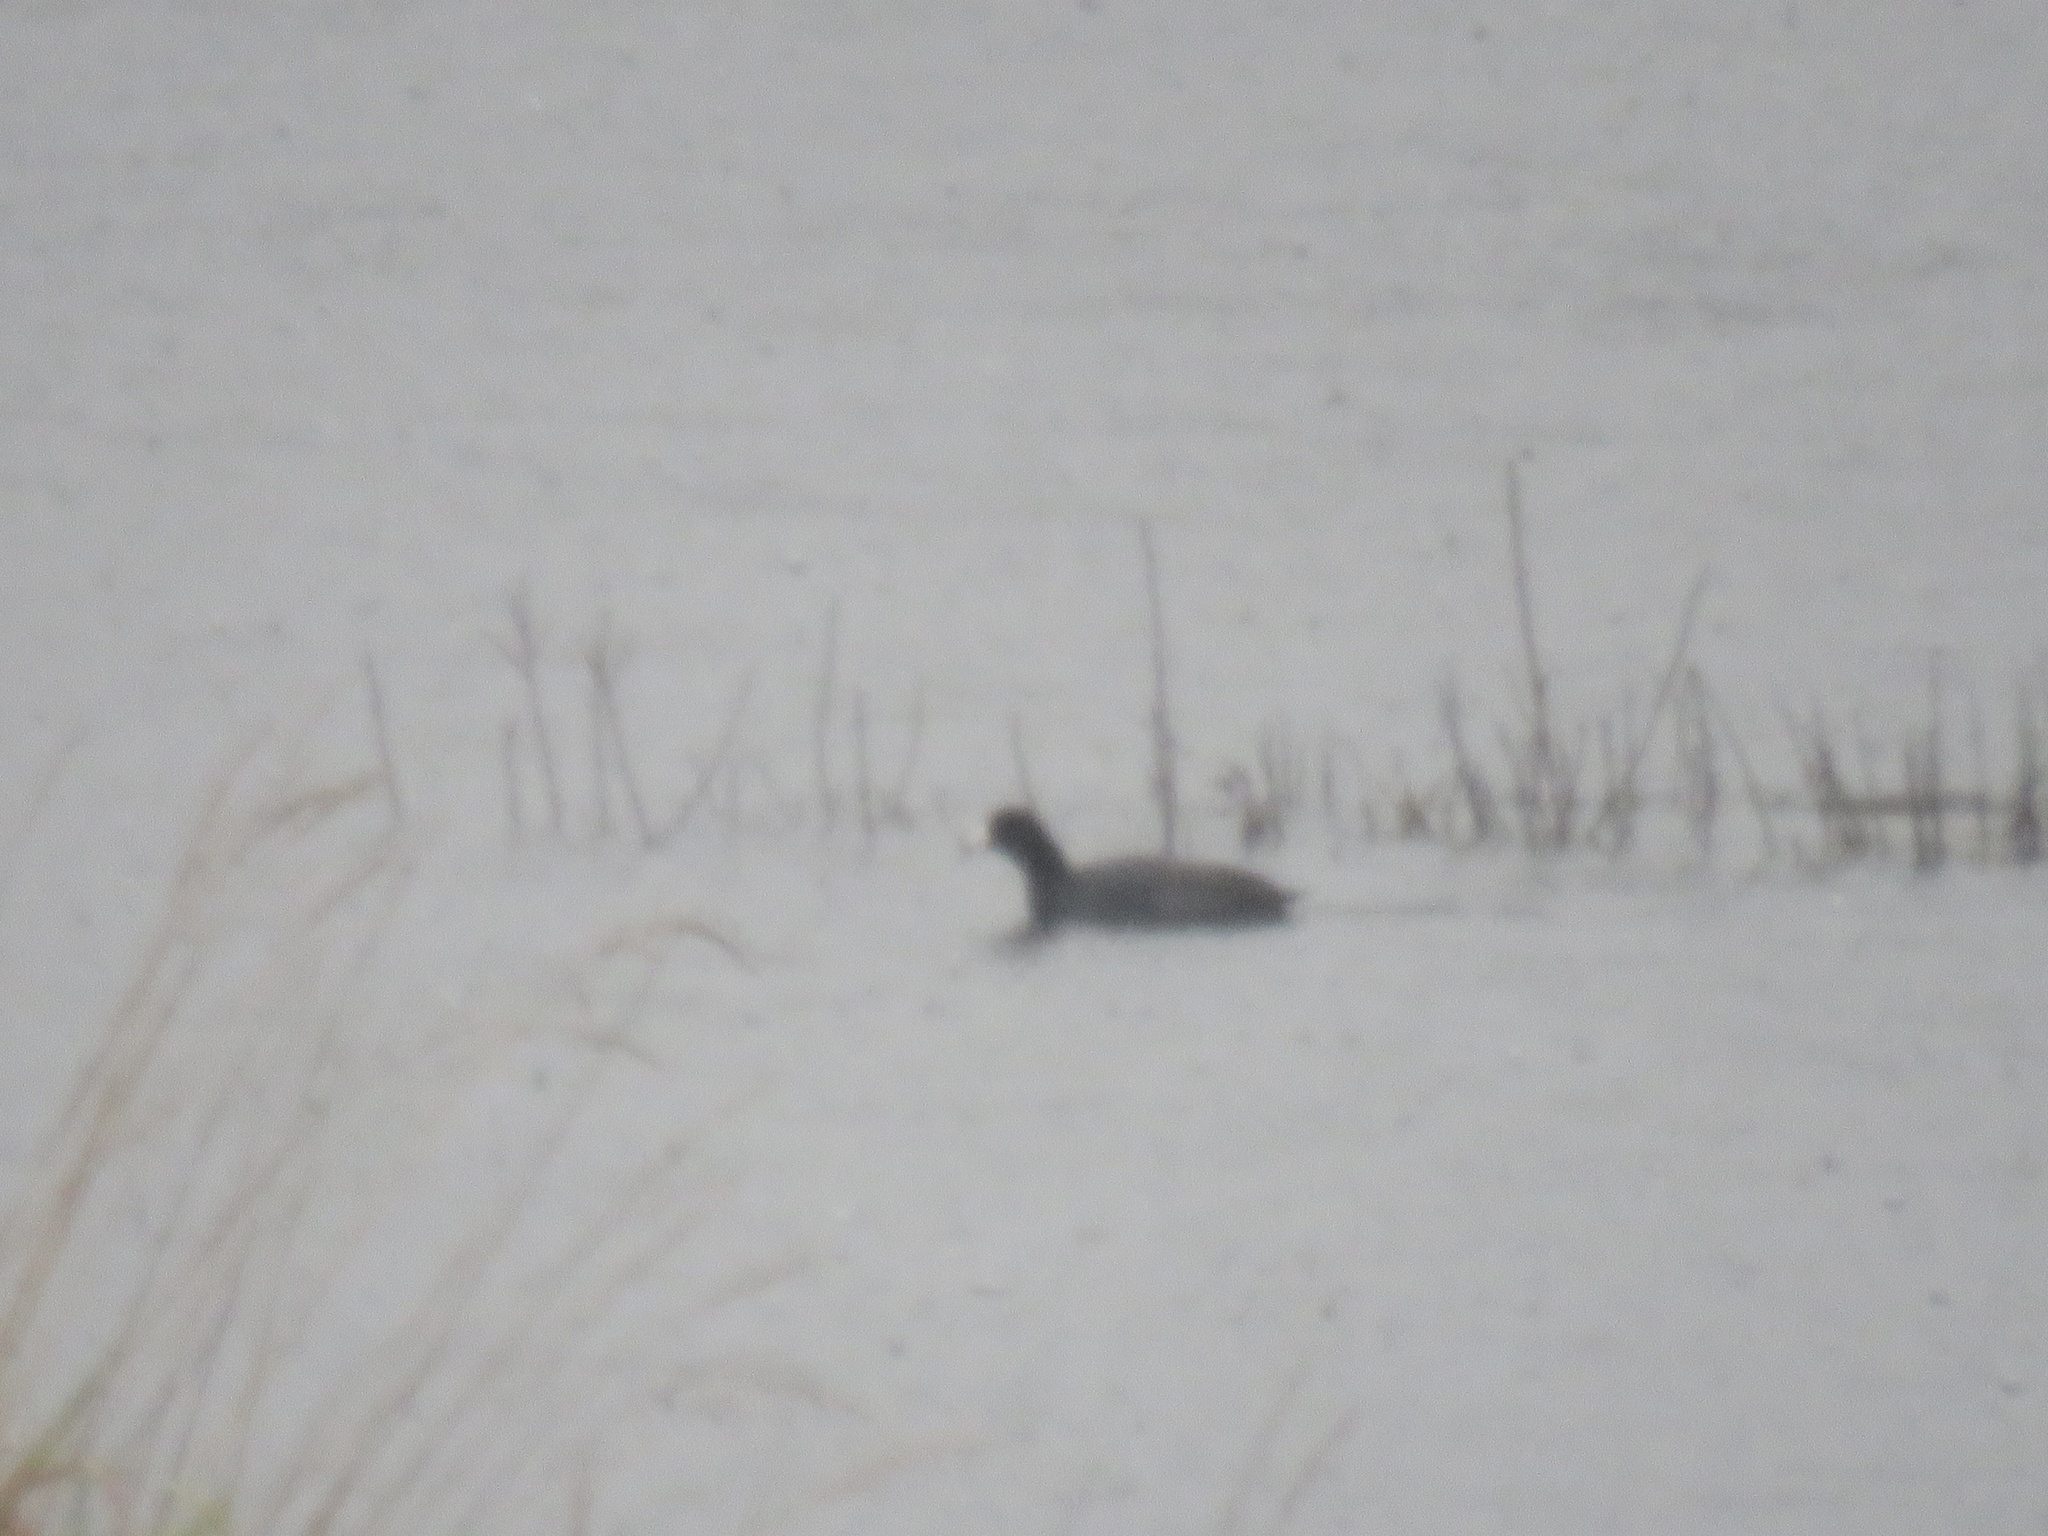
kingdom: Animalia
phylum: Chordata
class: Aves
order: Gruiformes
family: Rallidae
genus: Fulica
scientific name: Fulica americana
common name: American coot
